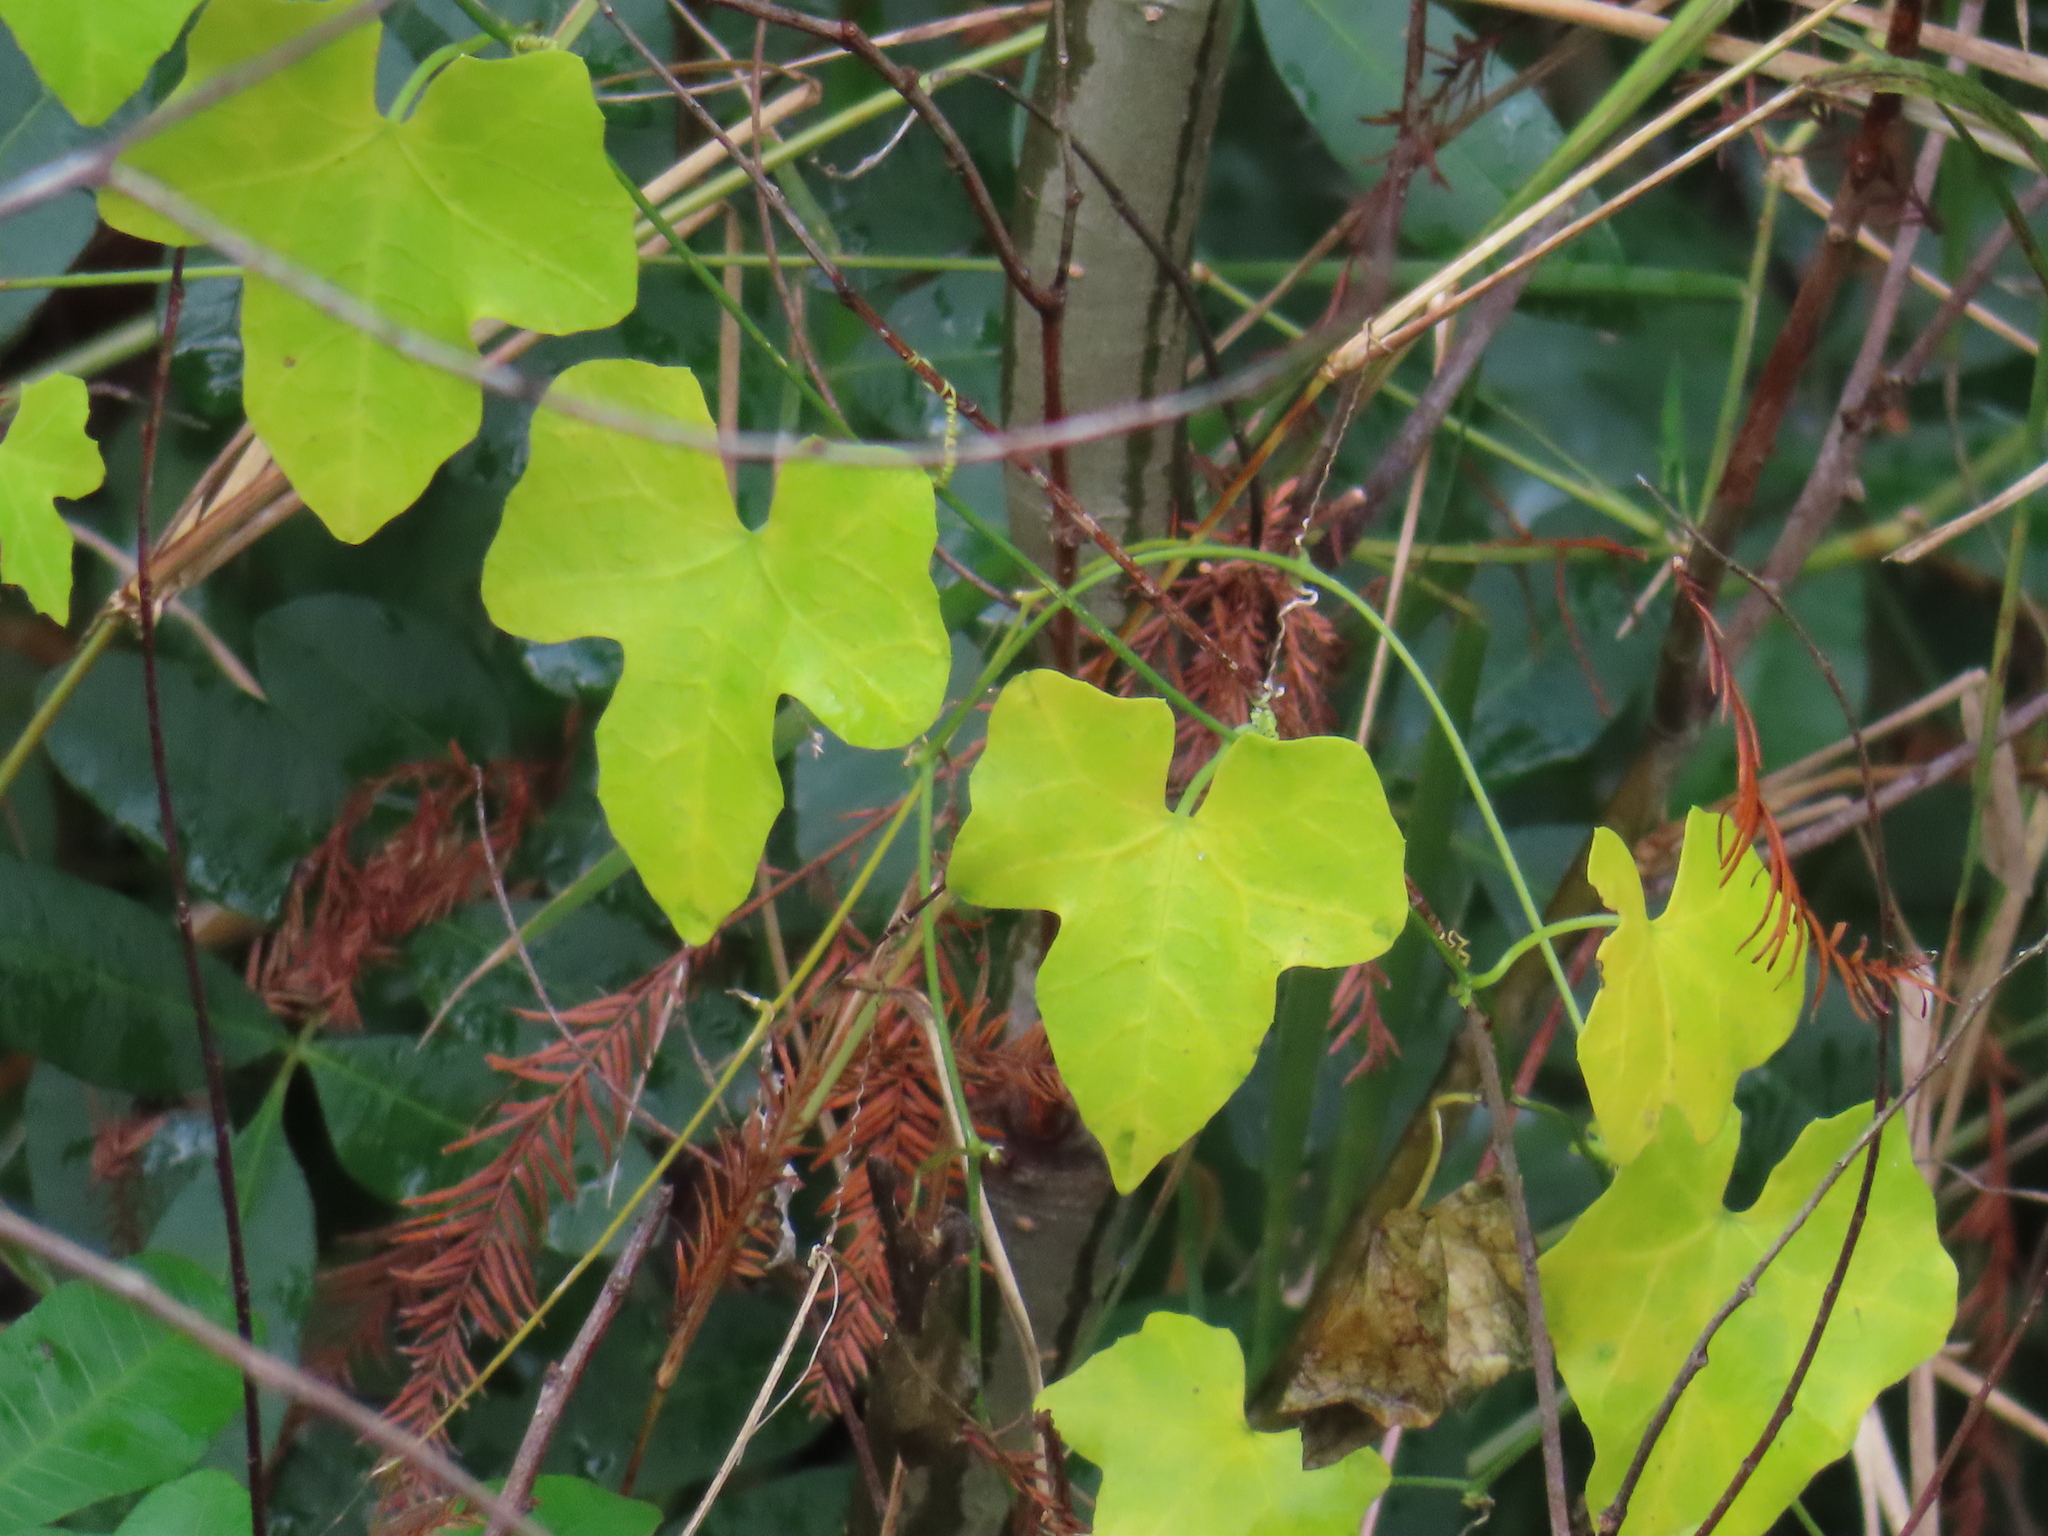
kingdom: Plantae
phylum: Tracheophyta
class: Magnoliopsida
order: Cucurbitales
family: Cucurbitaceae
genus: Melothria
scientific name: Melothria pendula
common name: Creeping-cucumber
